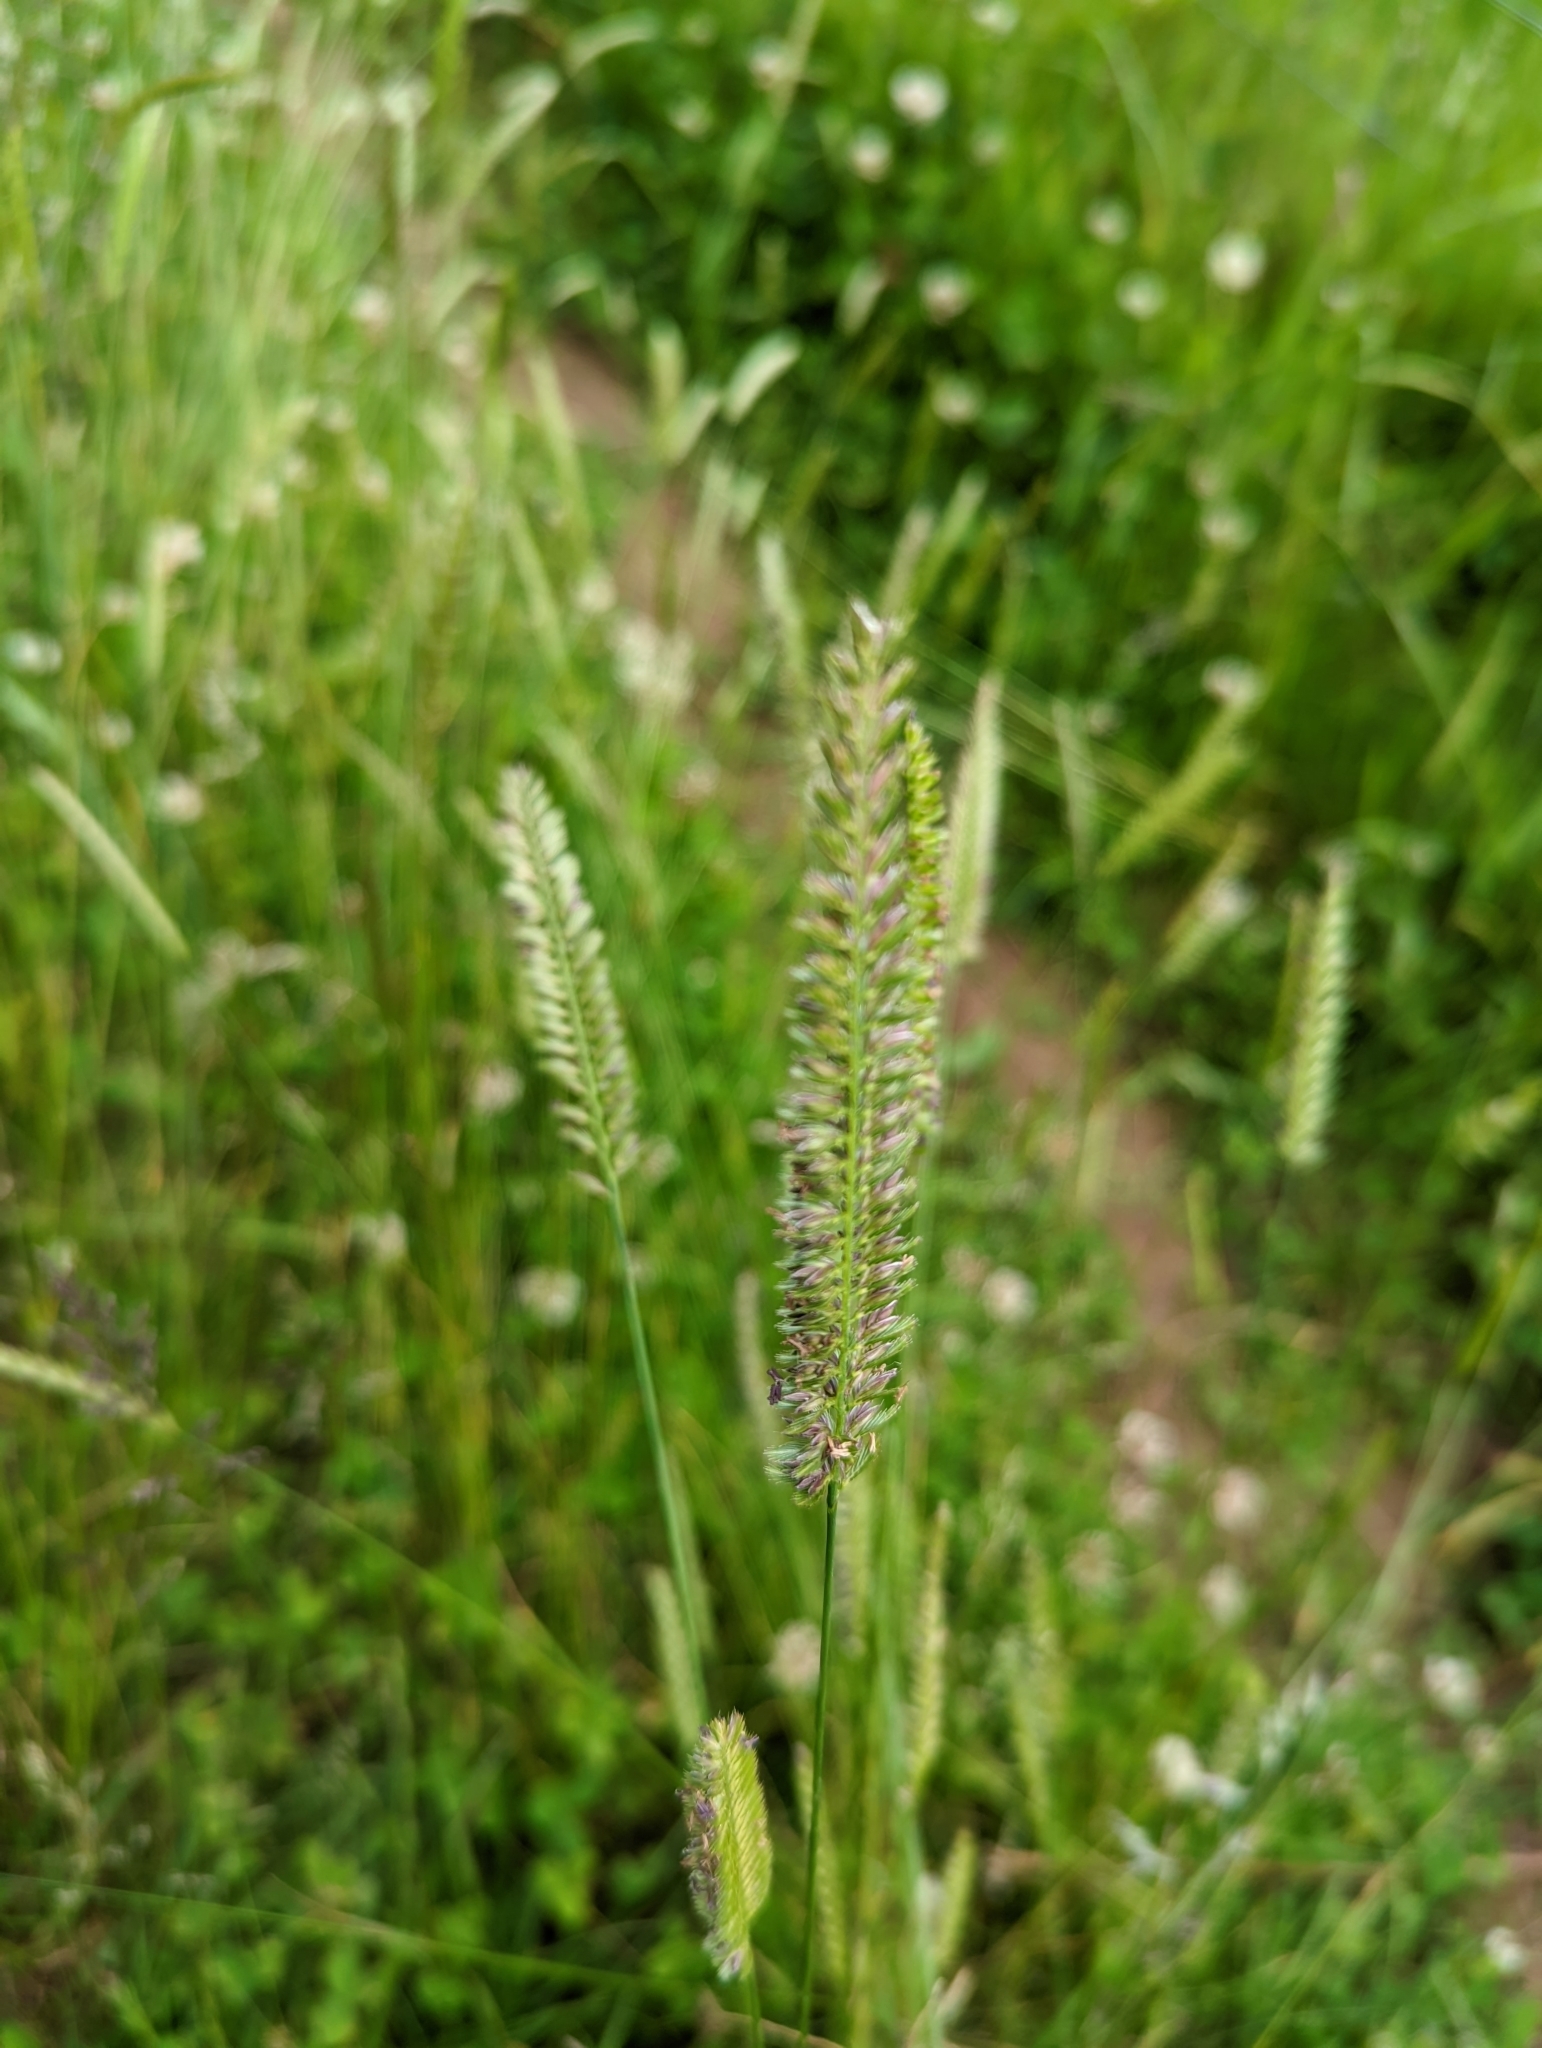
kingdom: Plantae
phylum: Tracheophyta
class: Liliopsida
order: Poales
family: Poaceae
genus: Cynosurus
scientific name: Cynosurus cristatus
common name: Crested dog's-tail
